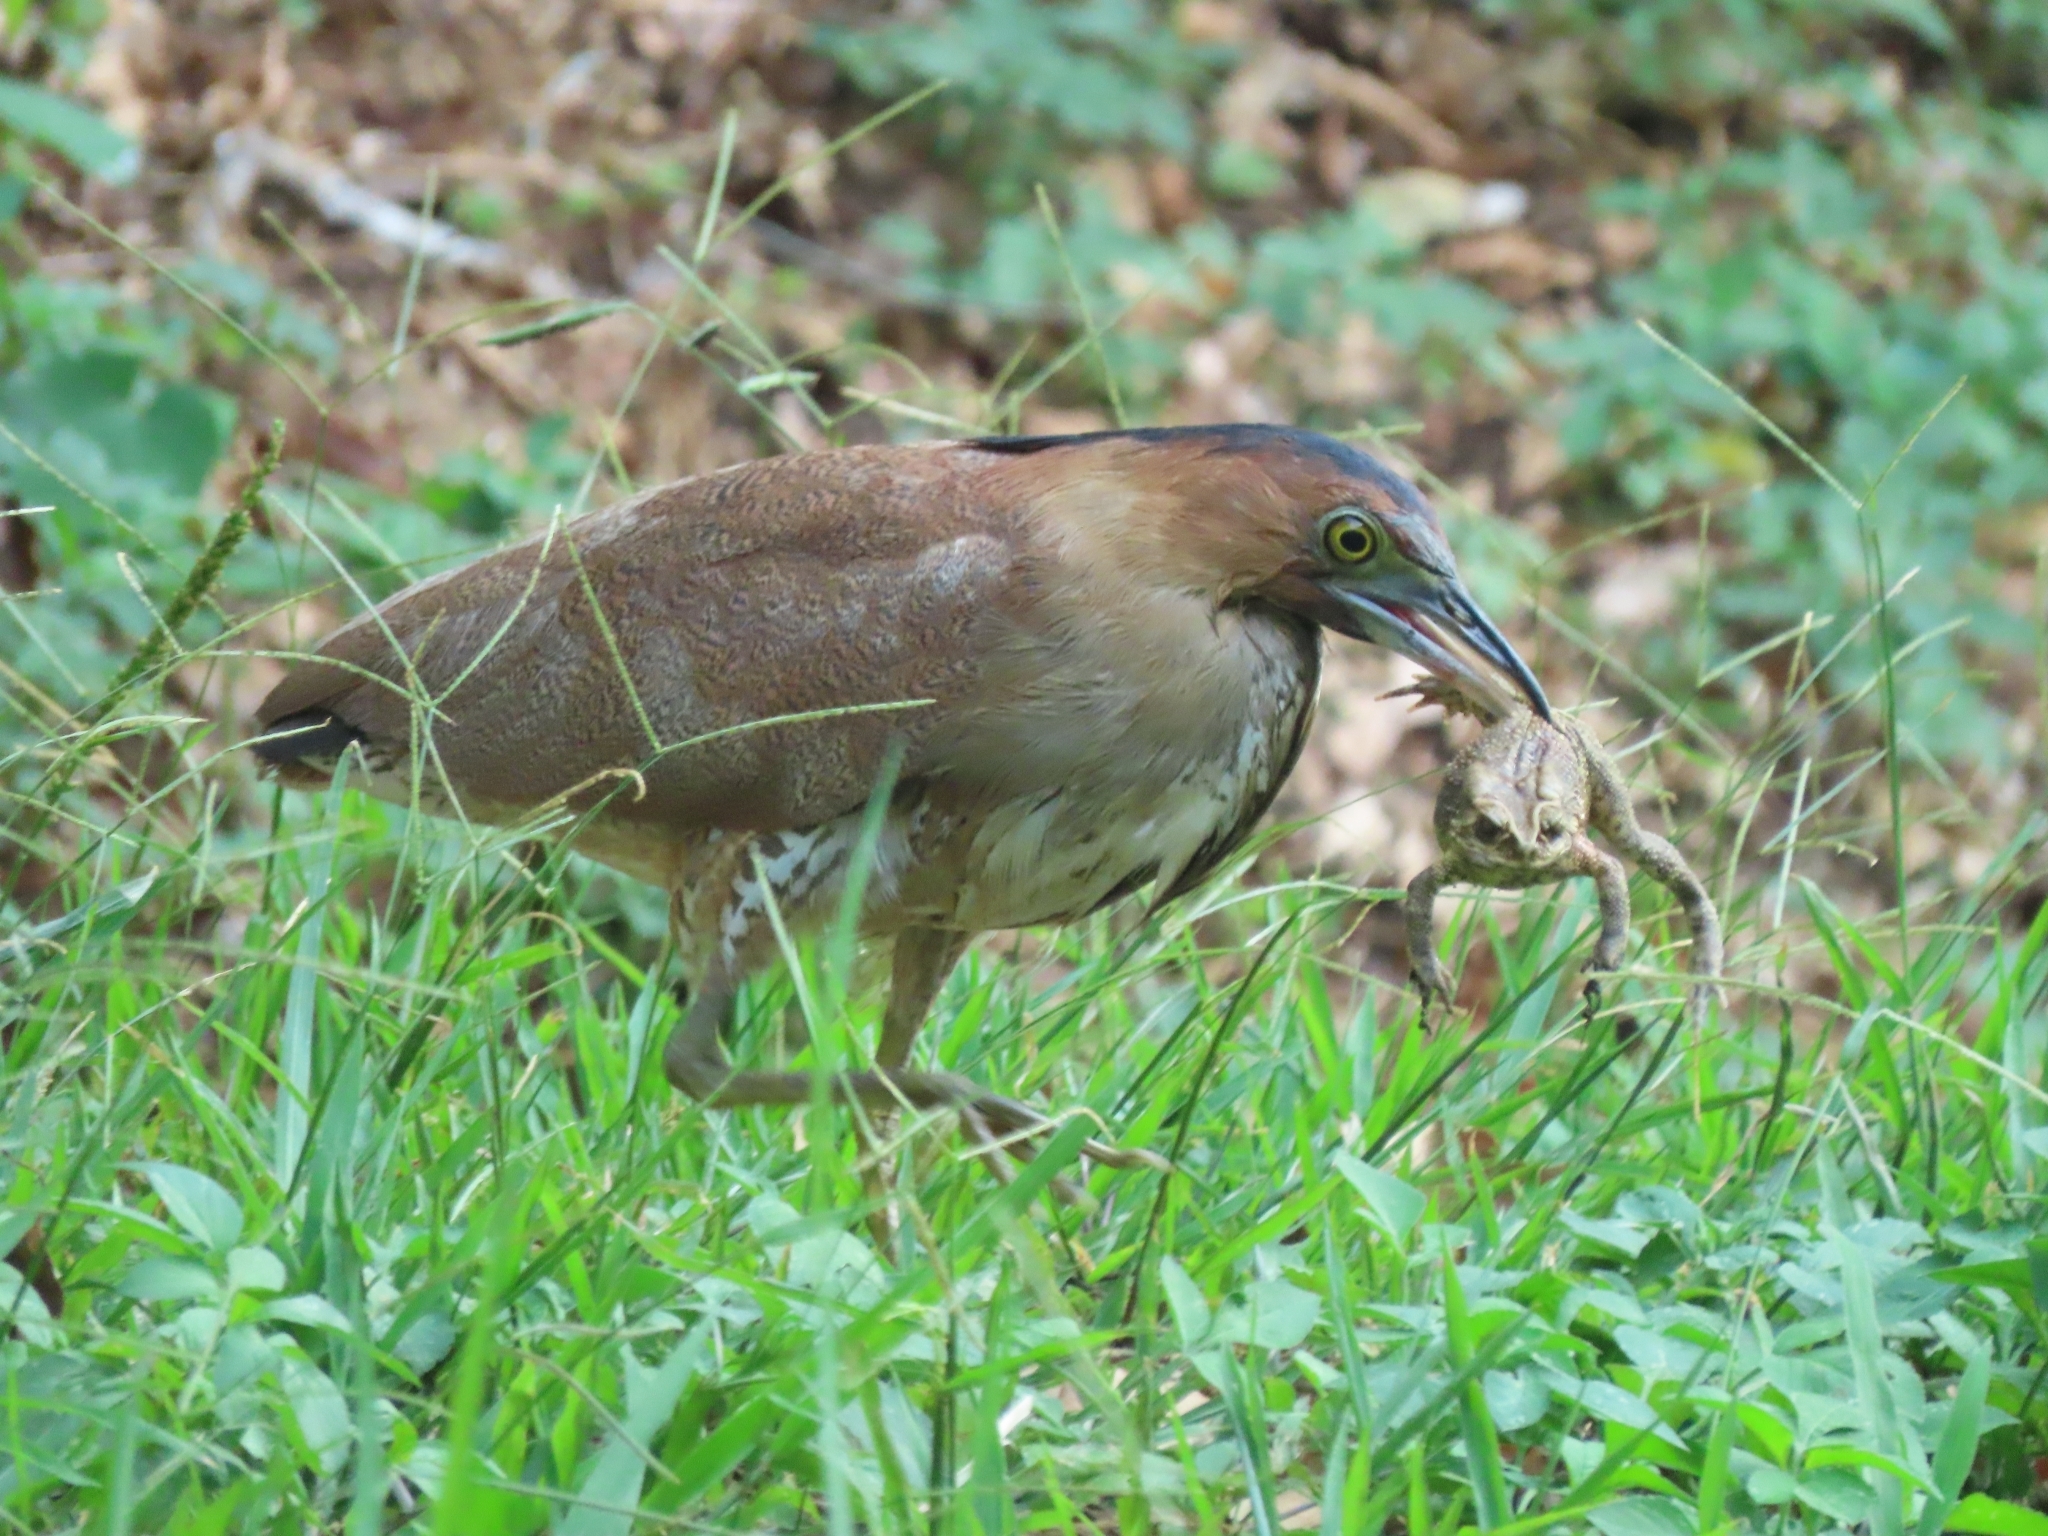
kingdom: Animalia
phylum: Chordata
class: Aves
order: Pelecaniformes
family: Ardeidae
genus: Gorsachius
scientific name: Gorsachius melanolophus
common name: Malayan night heron
